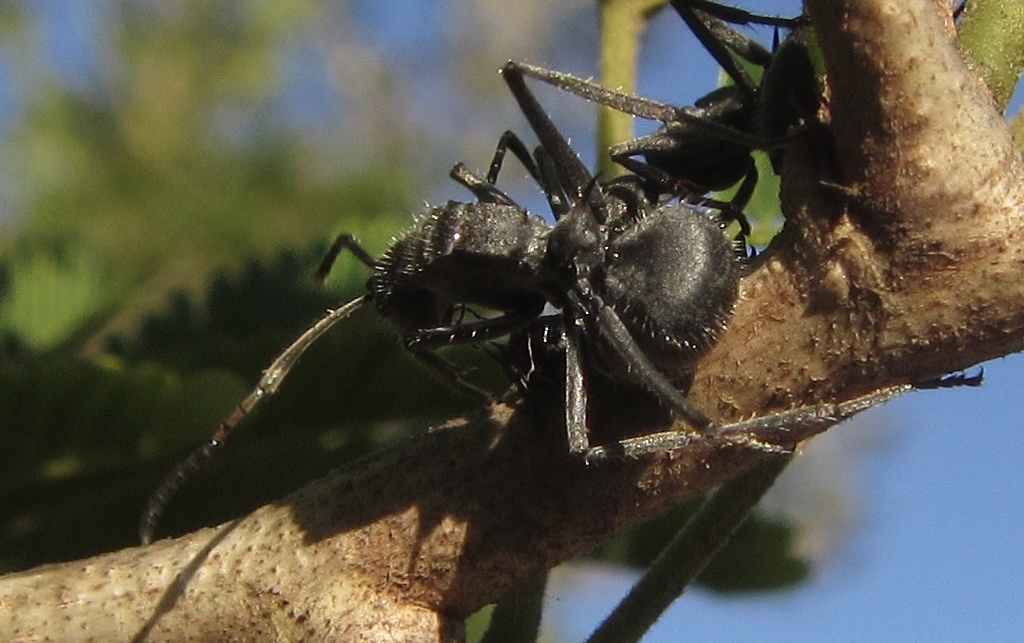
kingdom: Animalia
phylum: Arthropoda
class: Insecta
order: Hymenoptera
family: Formicidae
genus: Polyrhachis
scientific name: Polyrhachis schistacea
